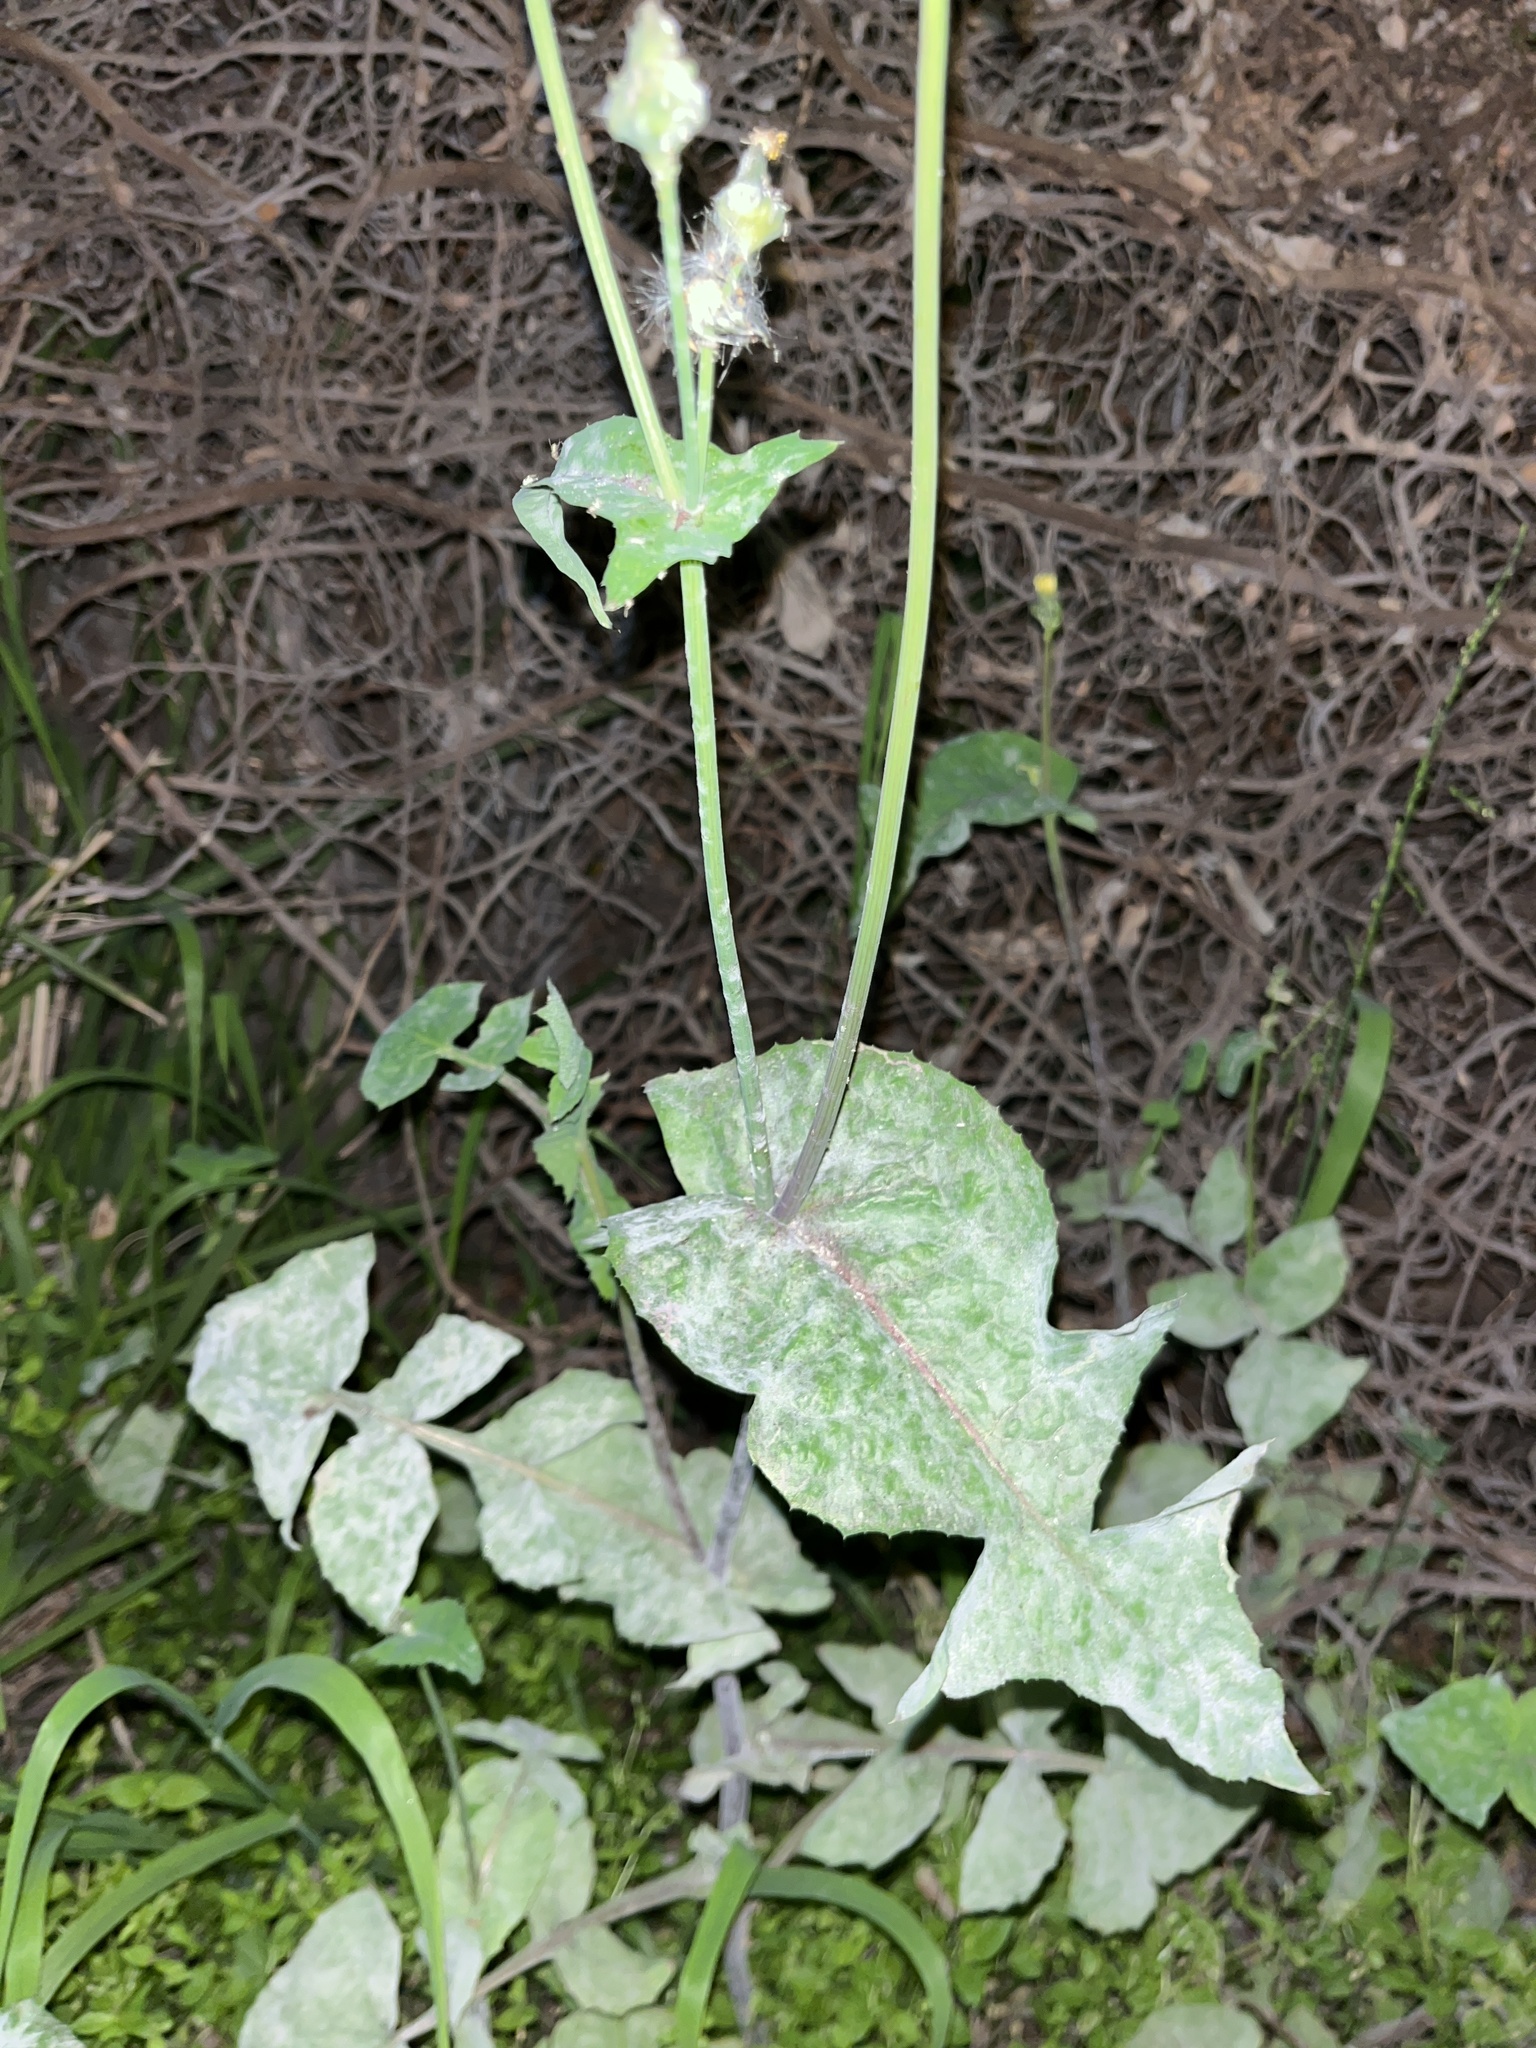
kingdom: Plantae
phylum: Tracheophyta
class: Magnoliopsida
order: Asterales
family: Asteraceae
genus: Sonchus
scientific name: Sonchus oleraceus
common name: Common sowthistle
